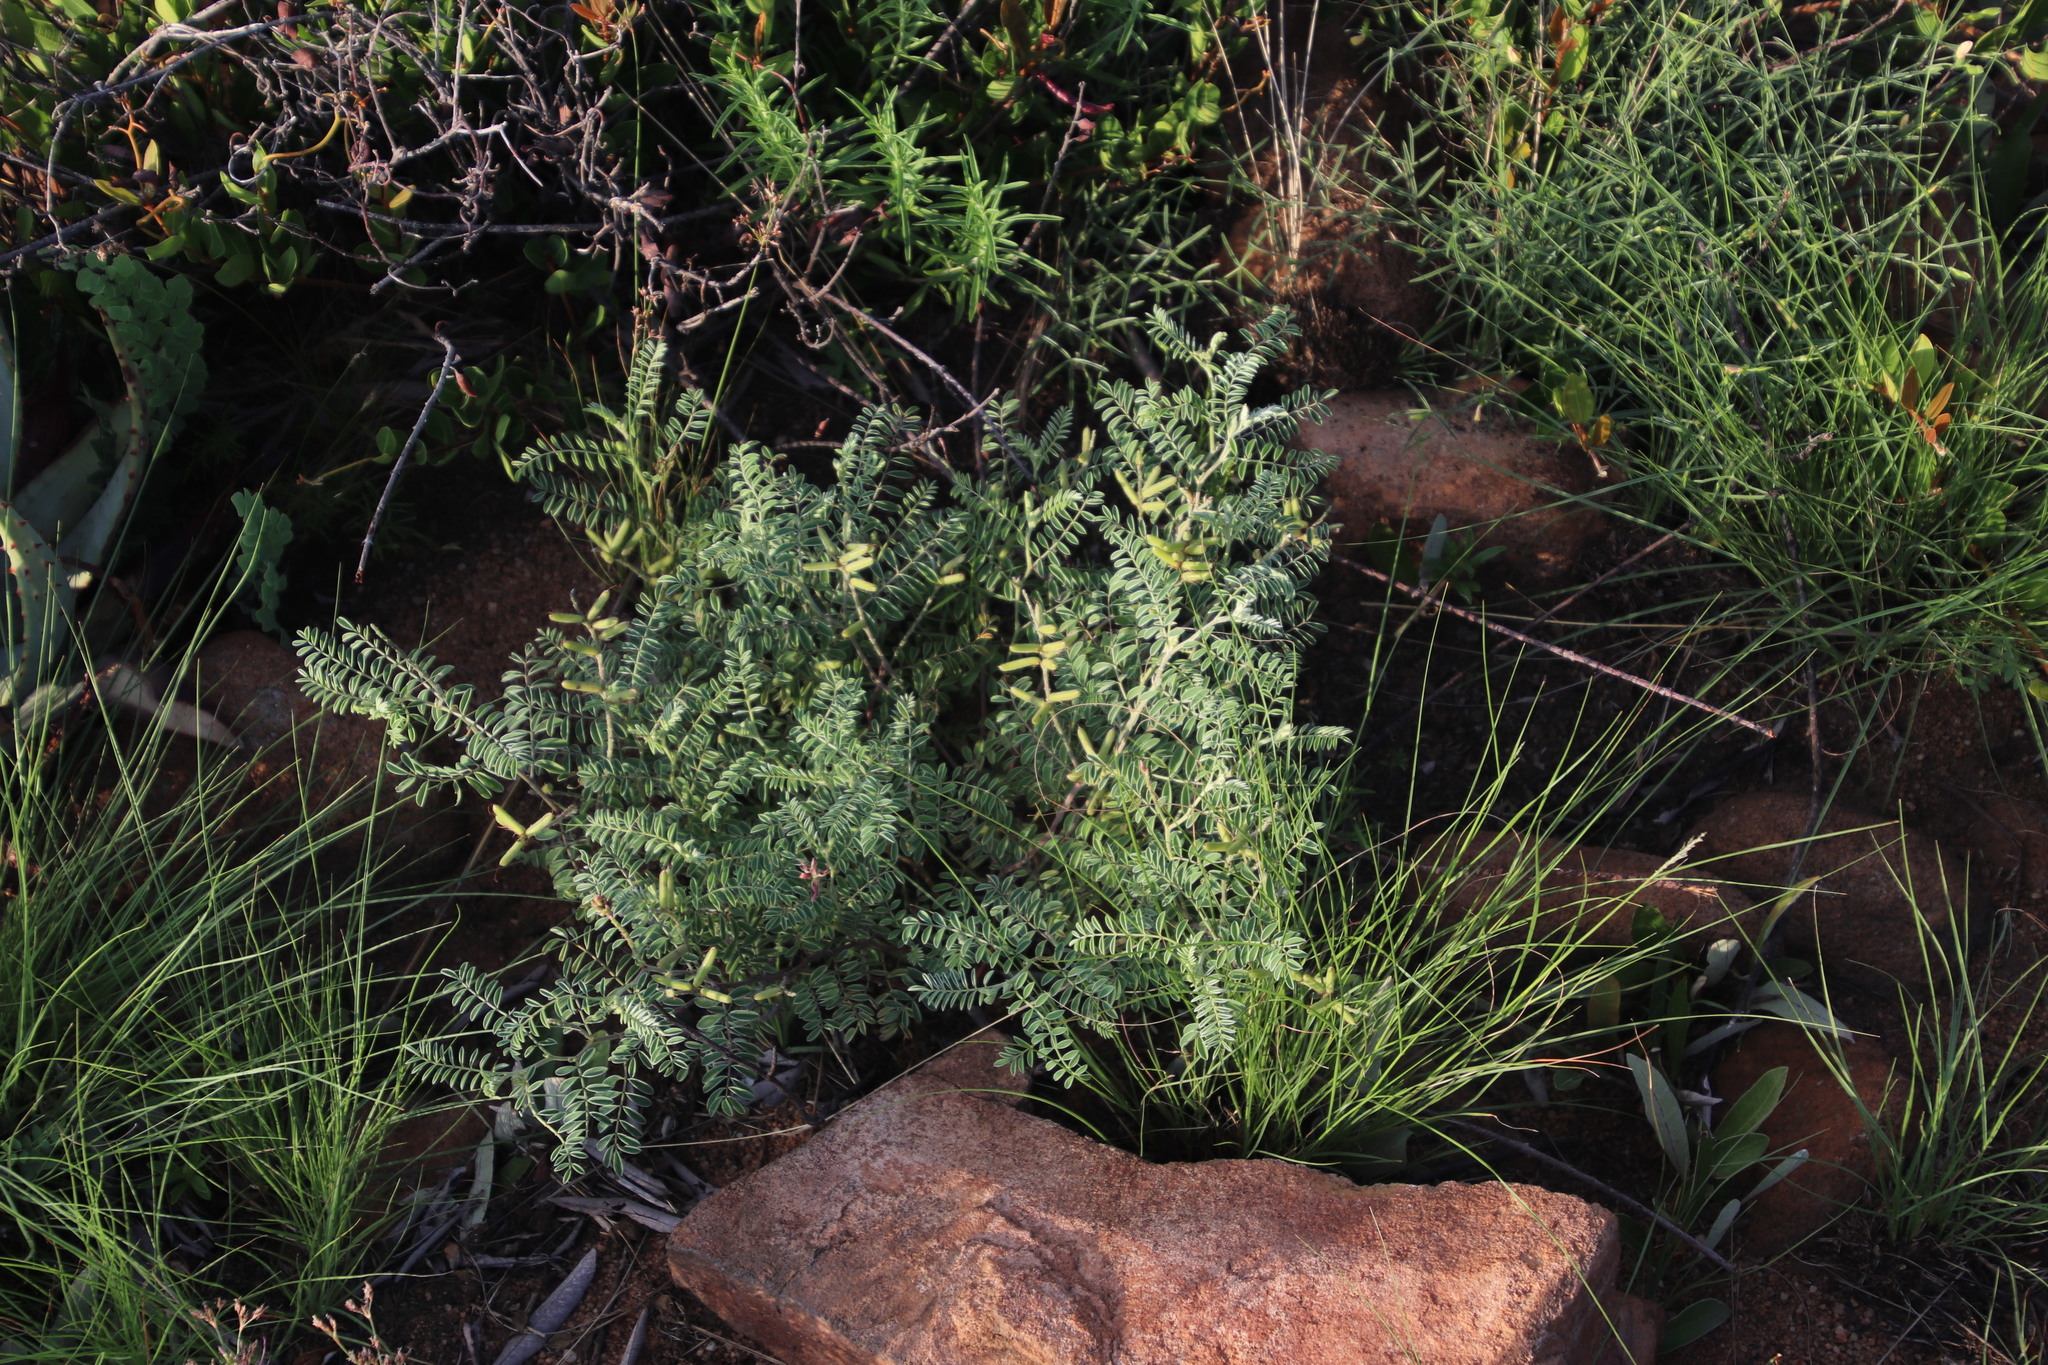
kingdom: Plantae
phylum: Tracheophyta
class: Magnoliopsida
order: Fabales
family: Fabaceae
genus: Indigofera
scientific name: Indigofera melanadenia
